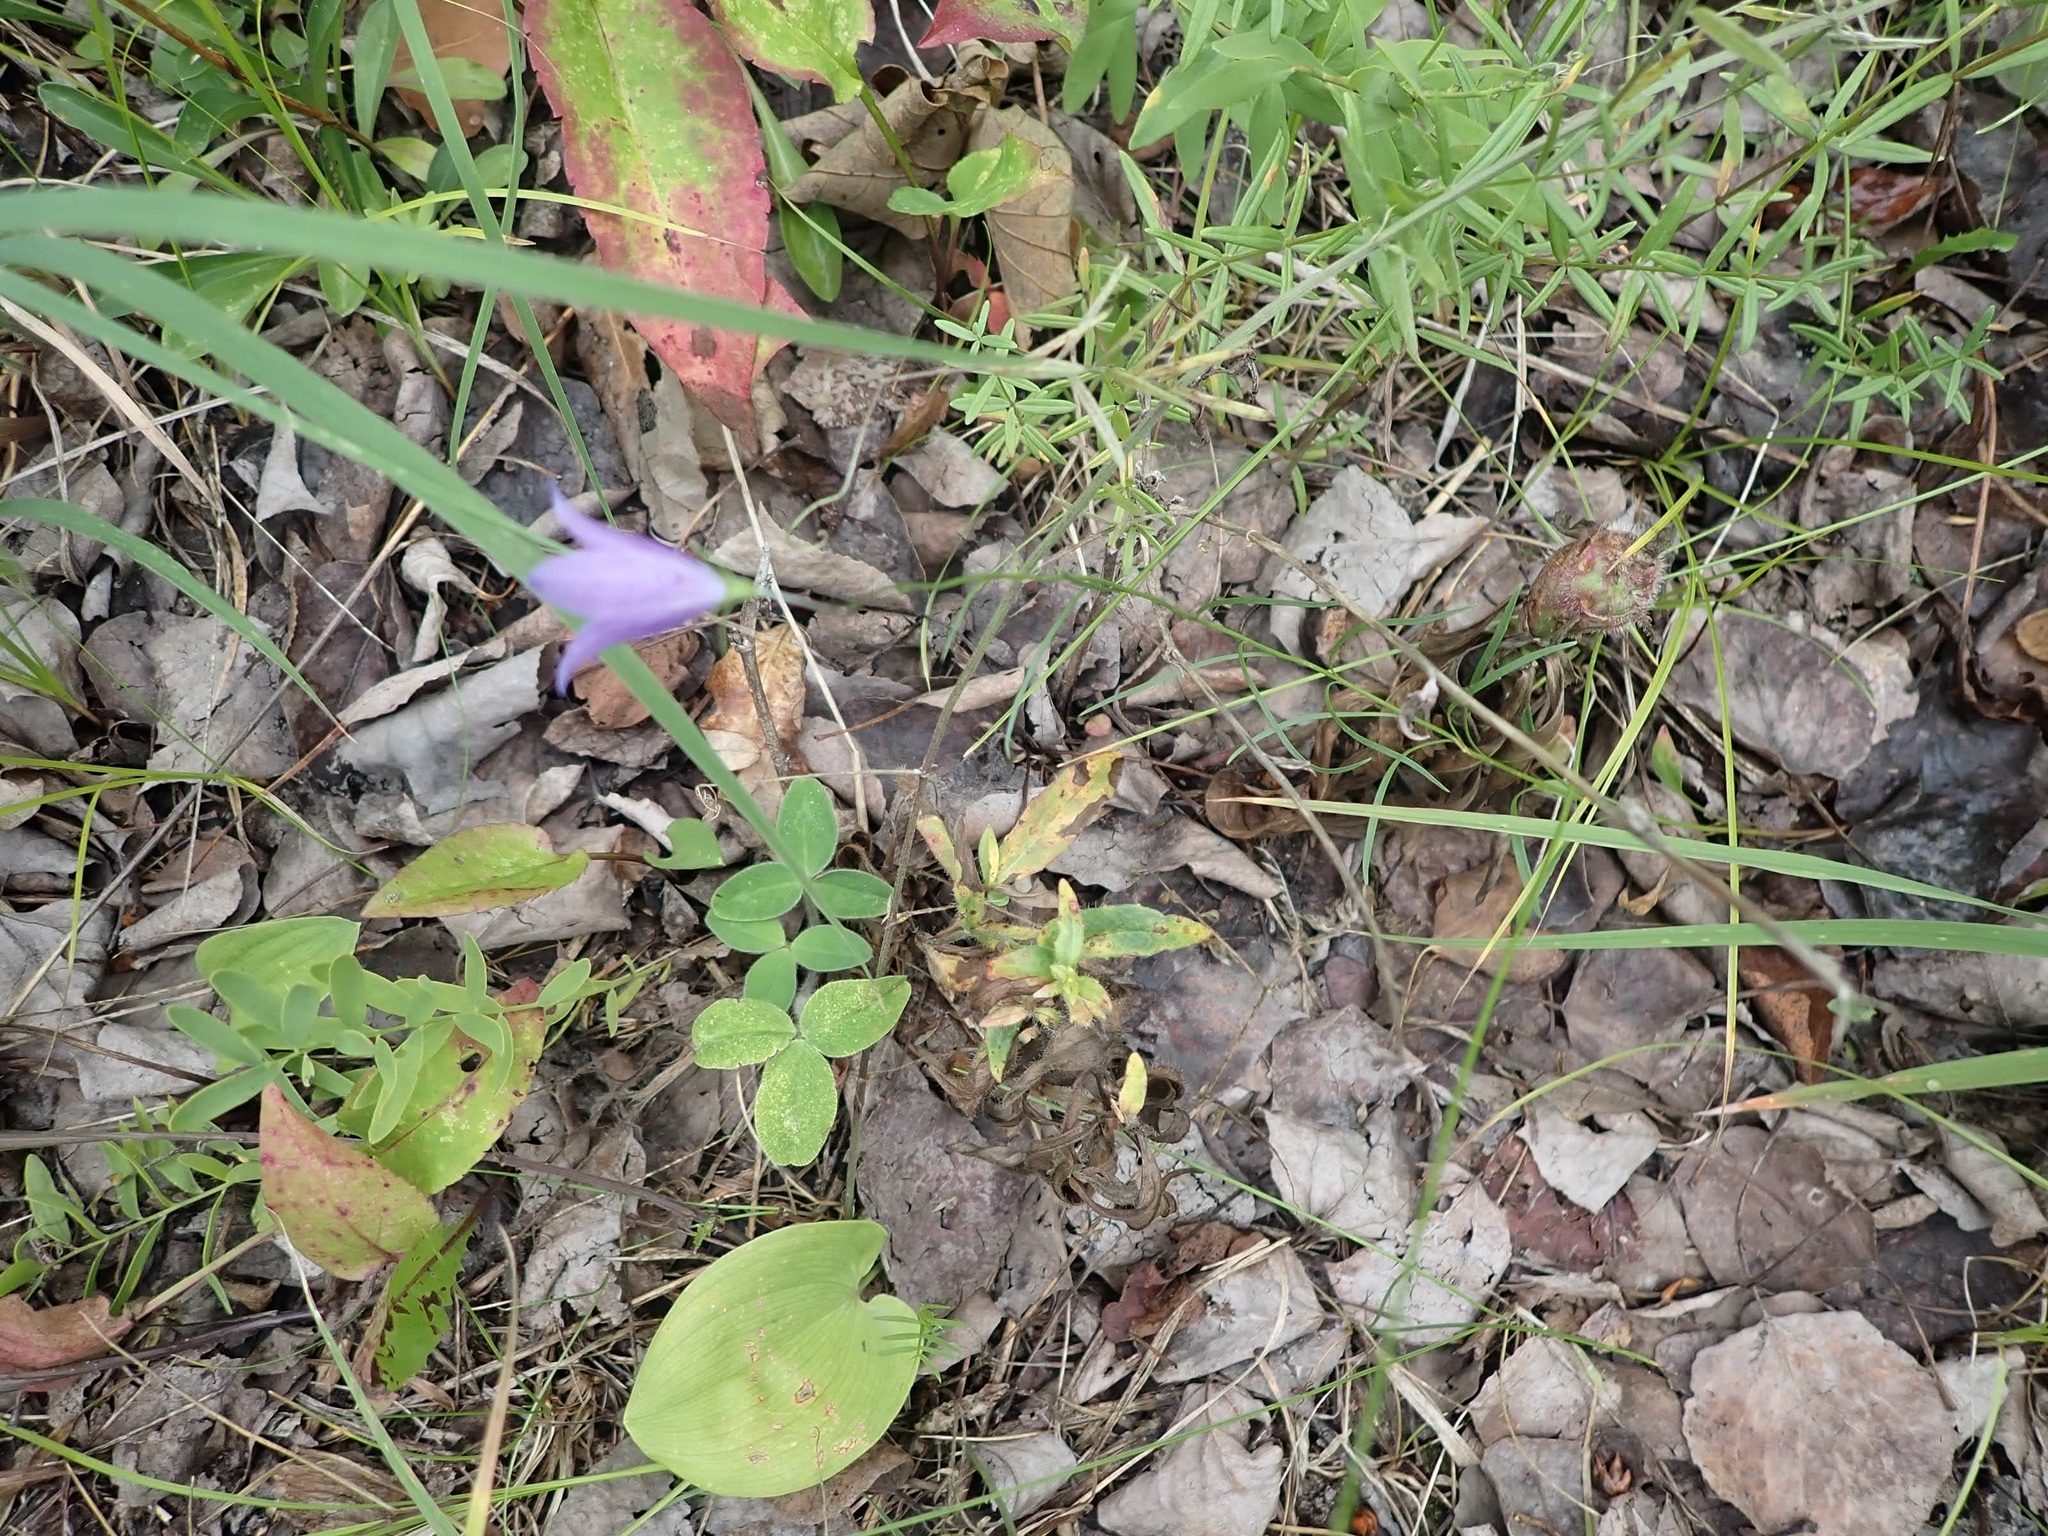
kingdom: Plantae
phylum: Tracheophyta
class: Magnoliopsida
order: Asterales
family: Campanulaceae
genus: Campanula
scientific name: Campanula petiolata
